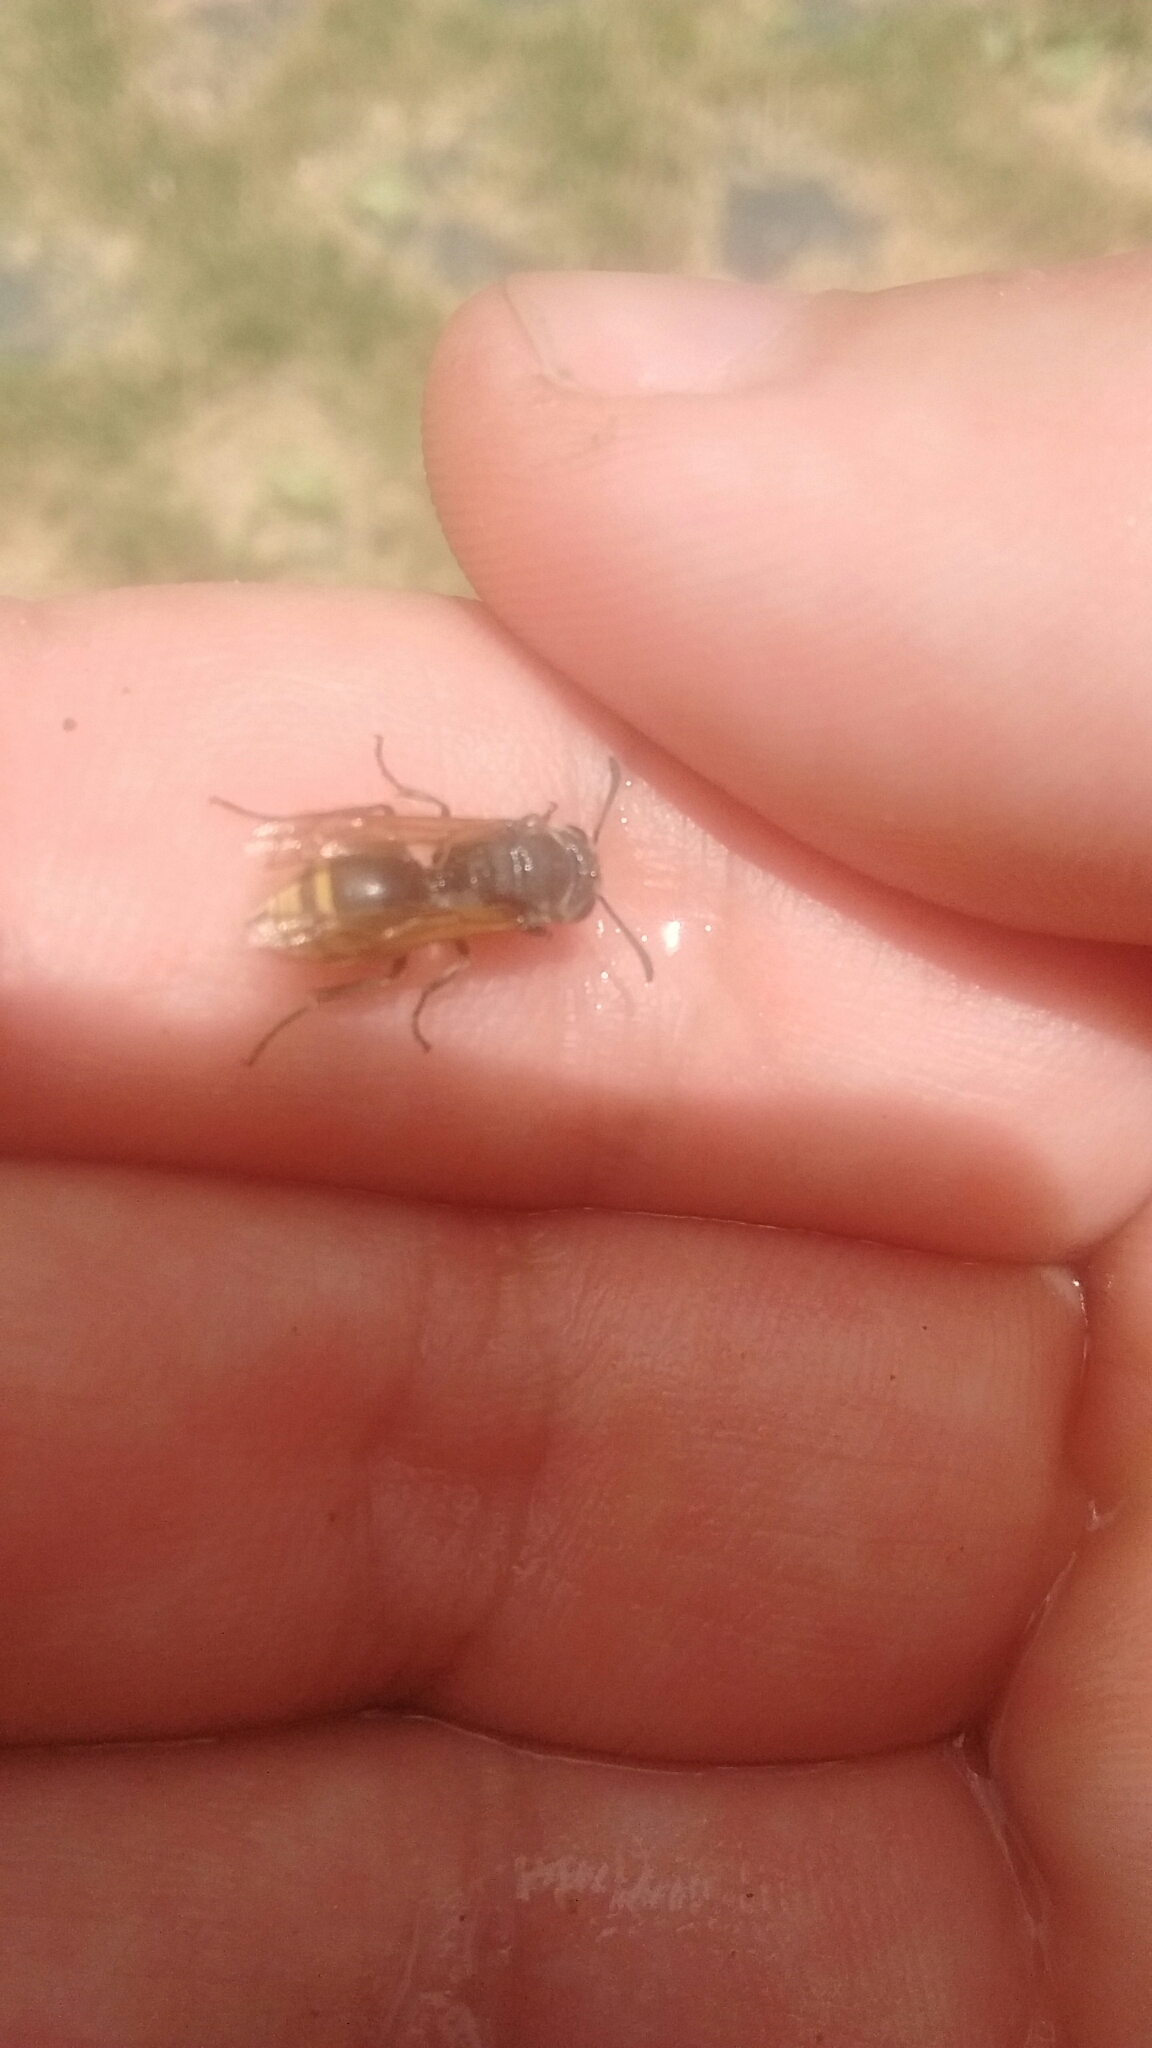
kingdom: Animalia
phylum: Arthropoda
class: Insecta
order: Hymenoptera
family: Vespidae
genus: Brachygastra
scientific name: Brachygastra lecheguana
